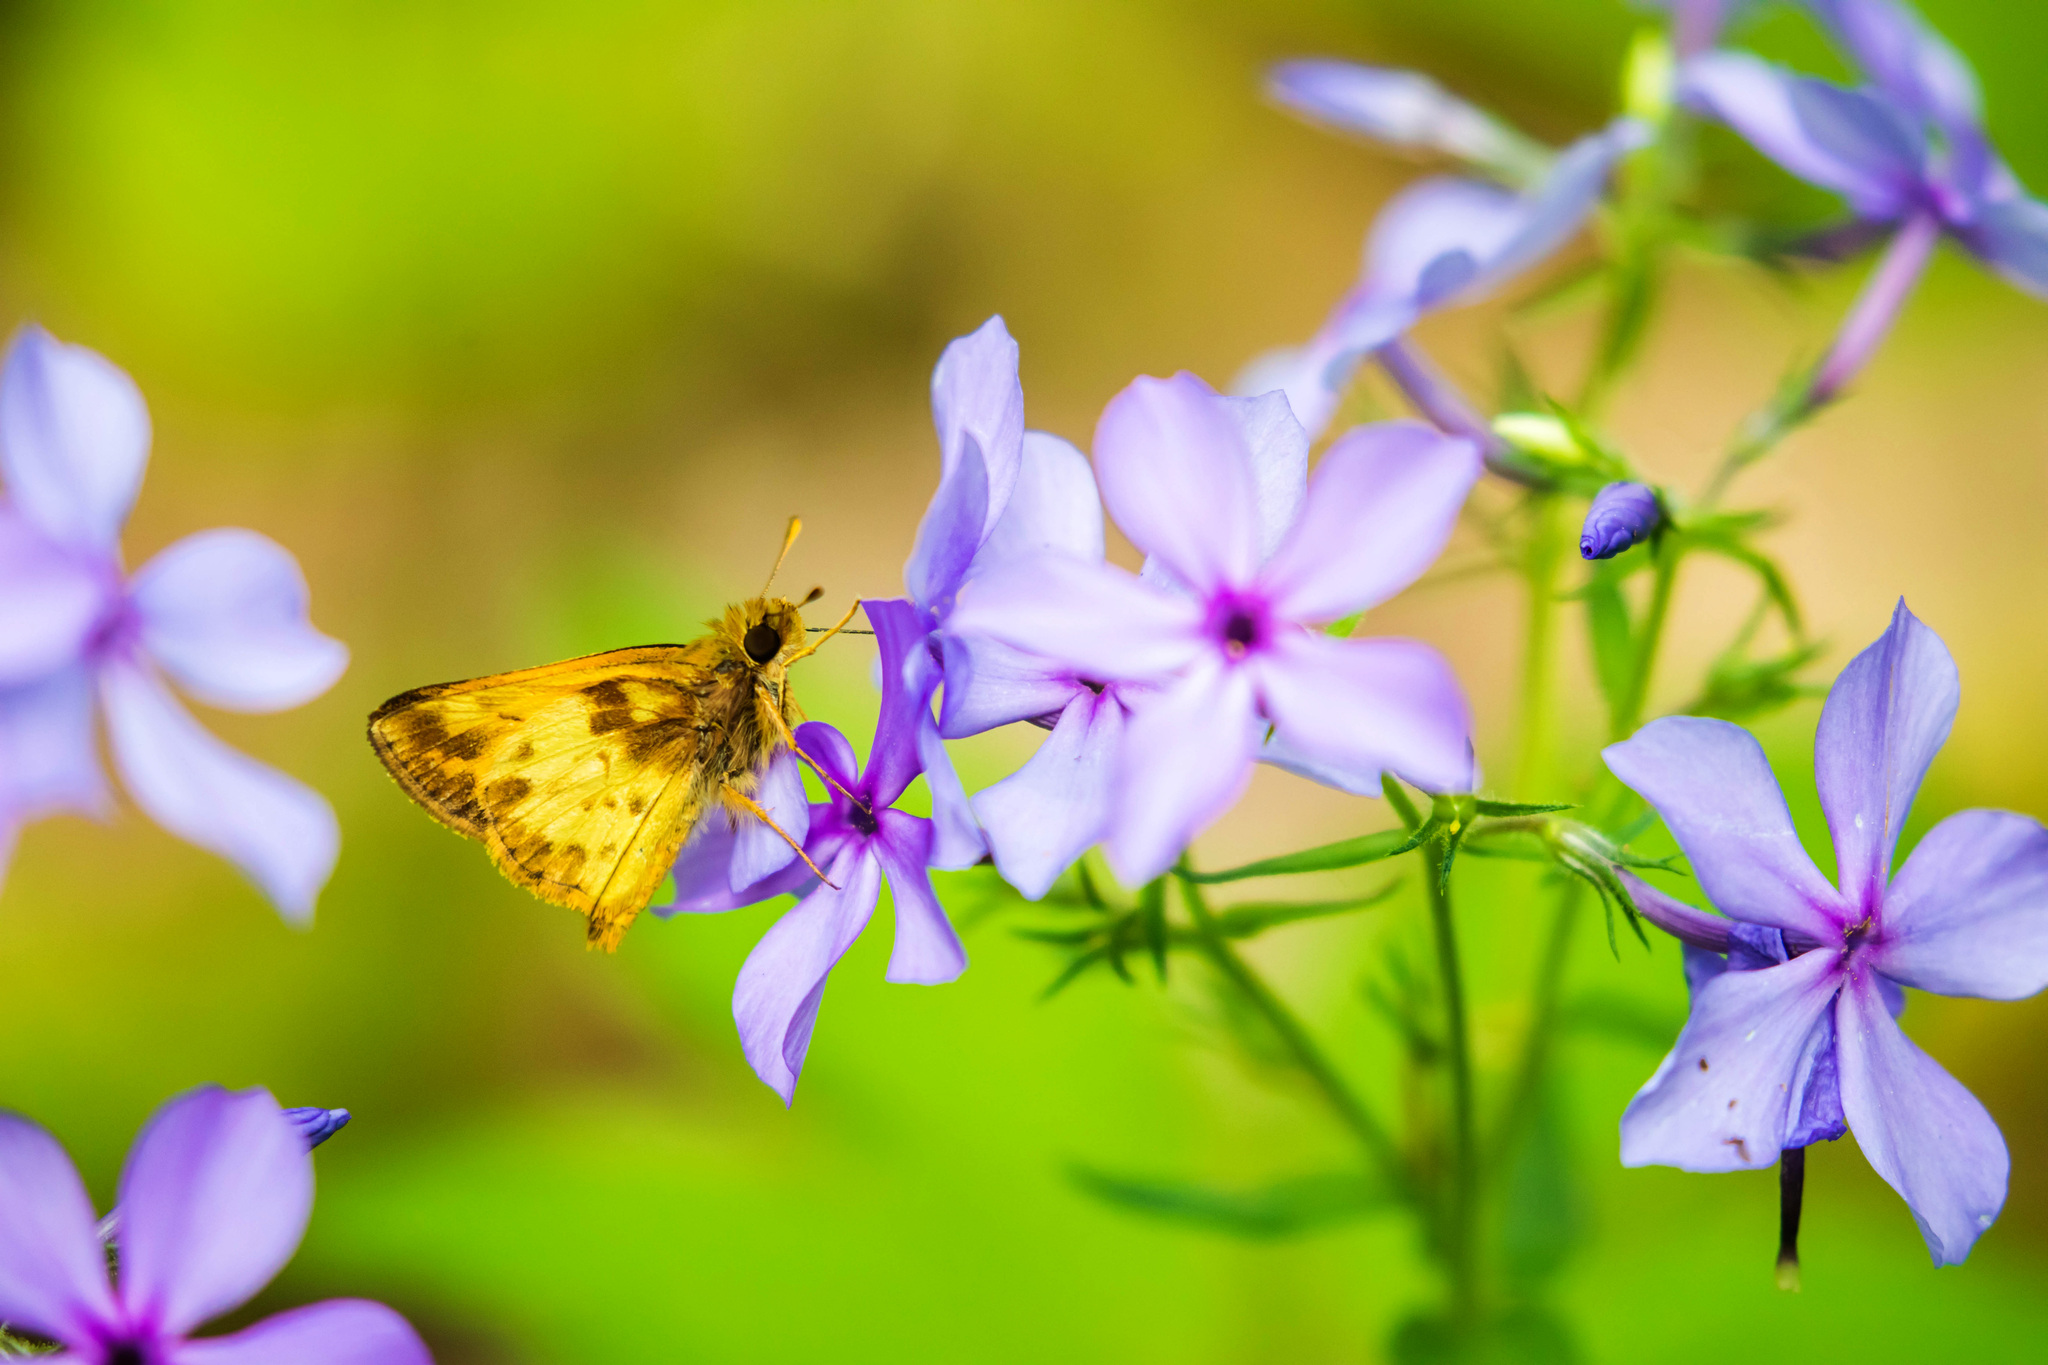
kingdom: Animalia
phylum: Arthropoda
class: Insecta
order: Lepidoptera
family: Hesperiidae
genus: Lon
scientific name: Lon zabulon
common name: Zabulon skipper
